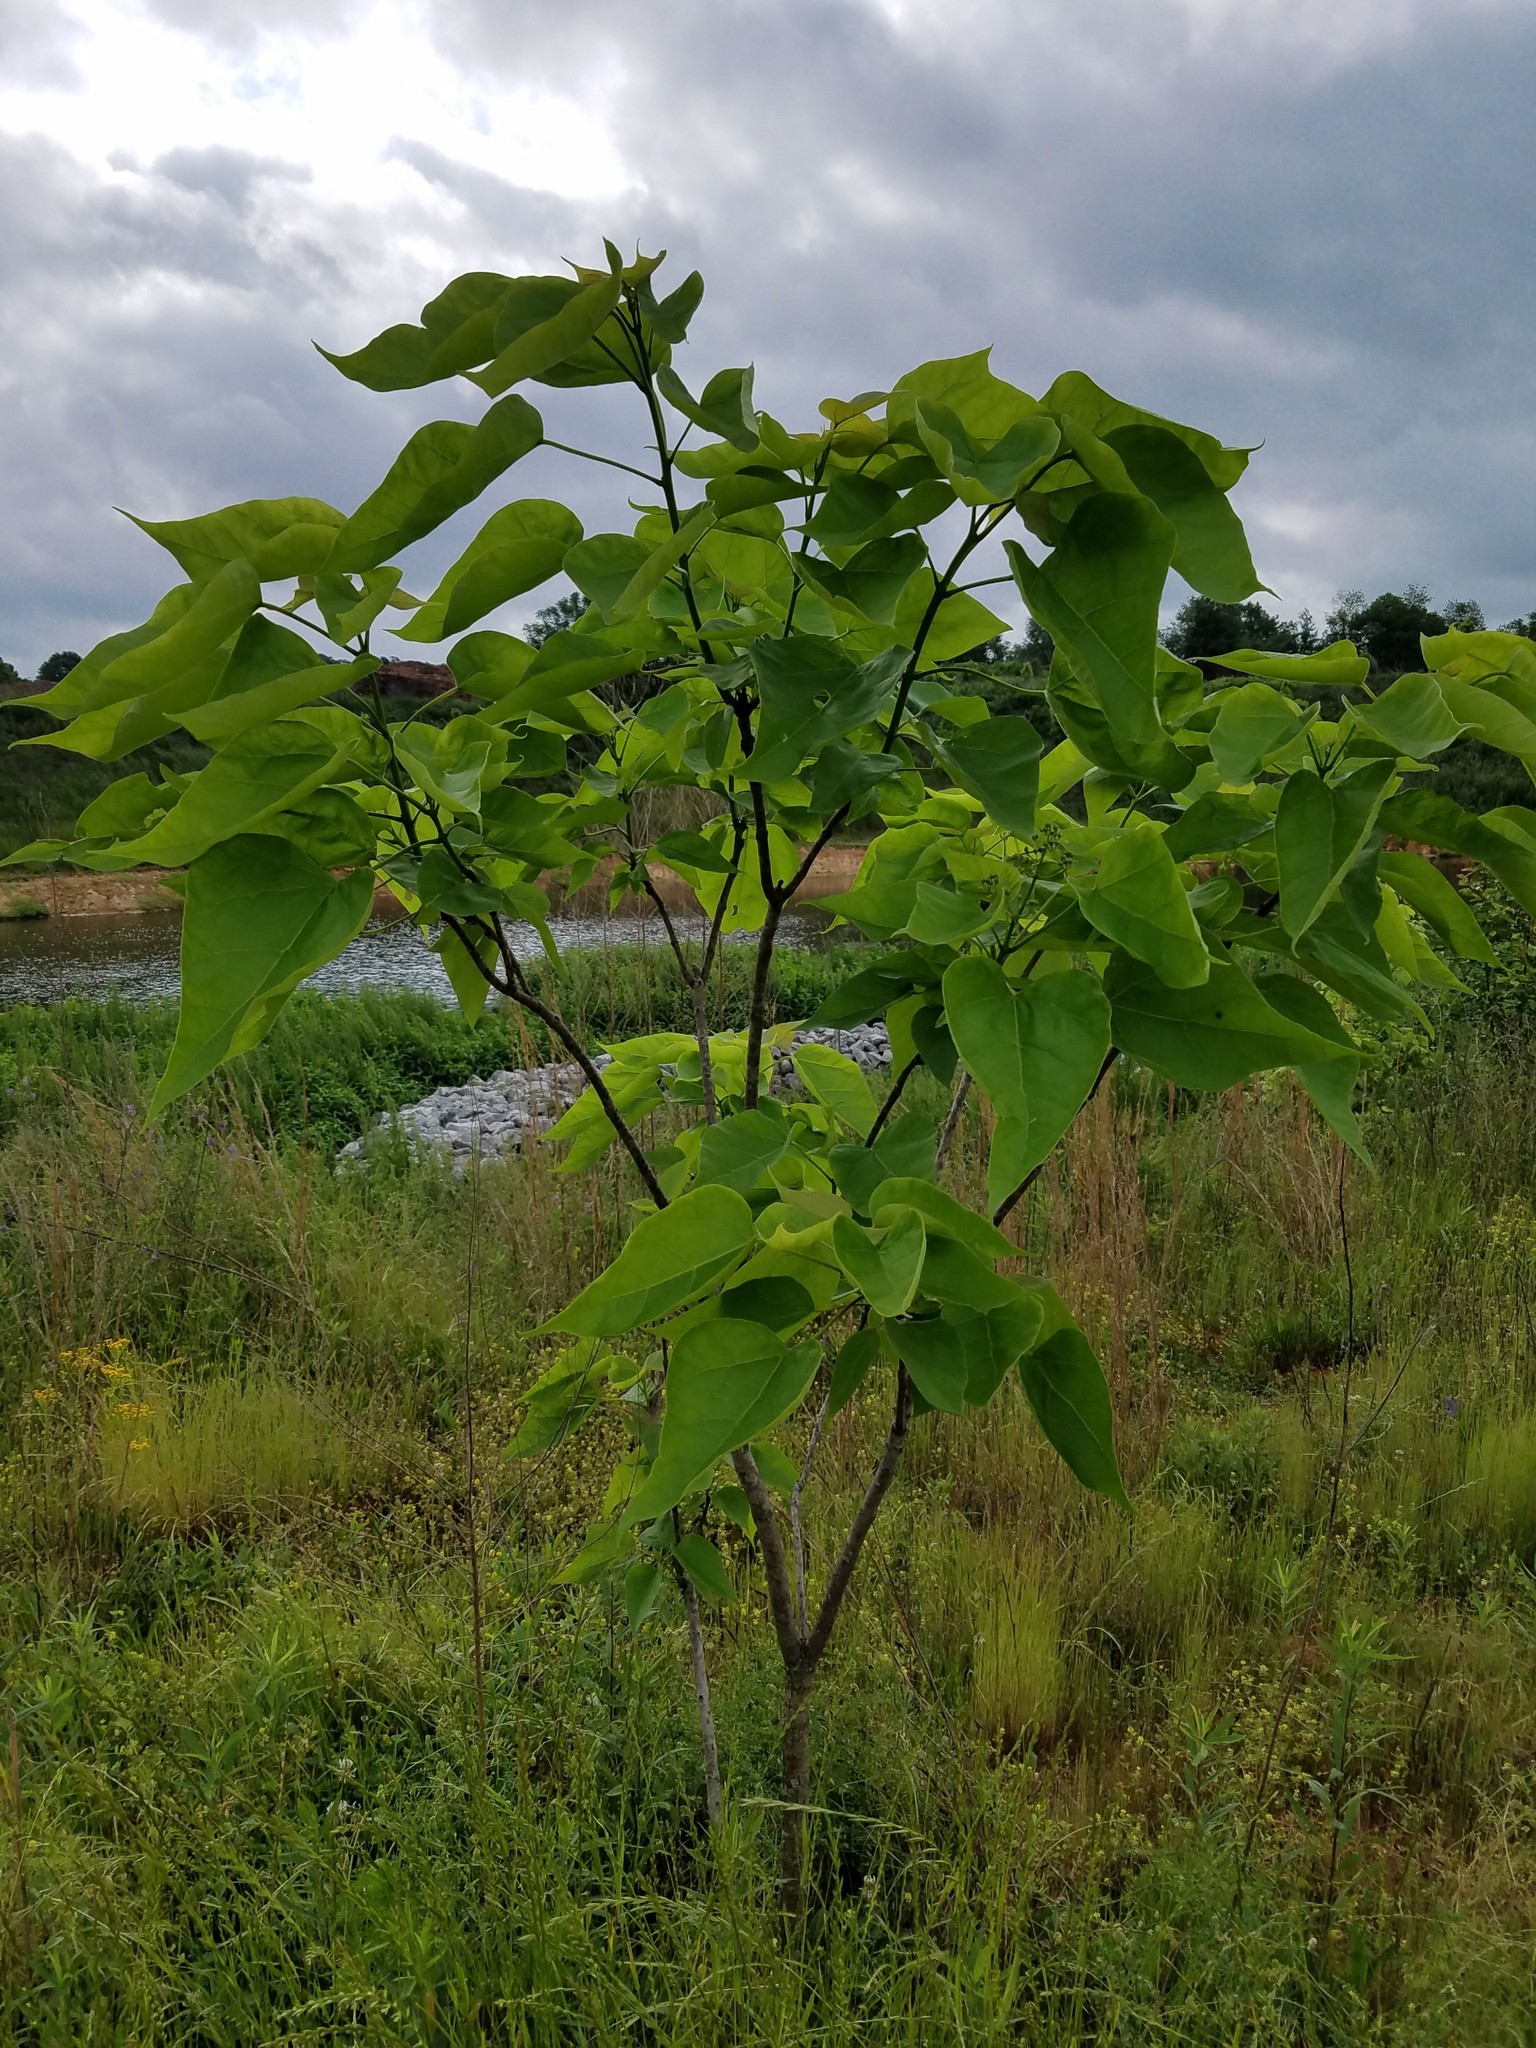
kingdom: Plantae
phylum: Tracheophyta
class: Magnoliopsida
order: Lamiales
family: Bignoniaceae
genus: Catalpa
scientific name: Catalpa bignonioides
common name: Southern catalpa
